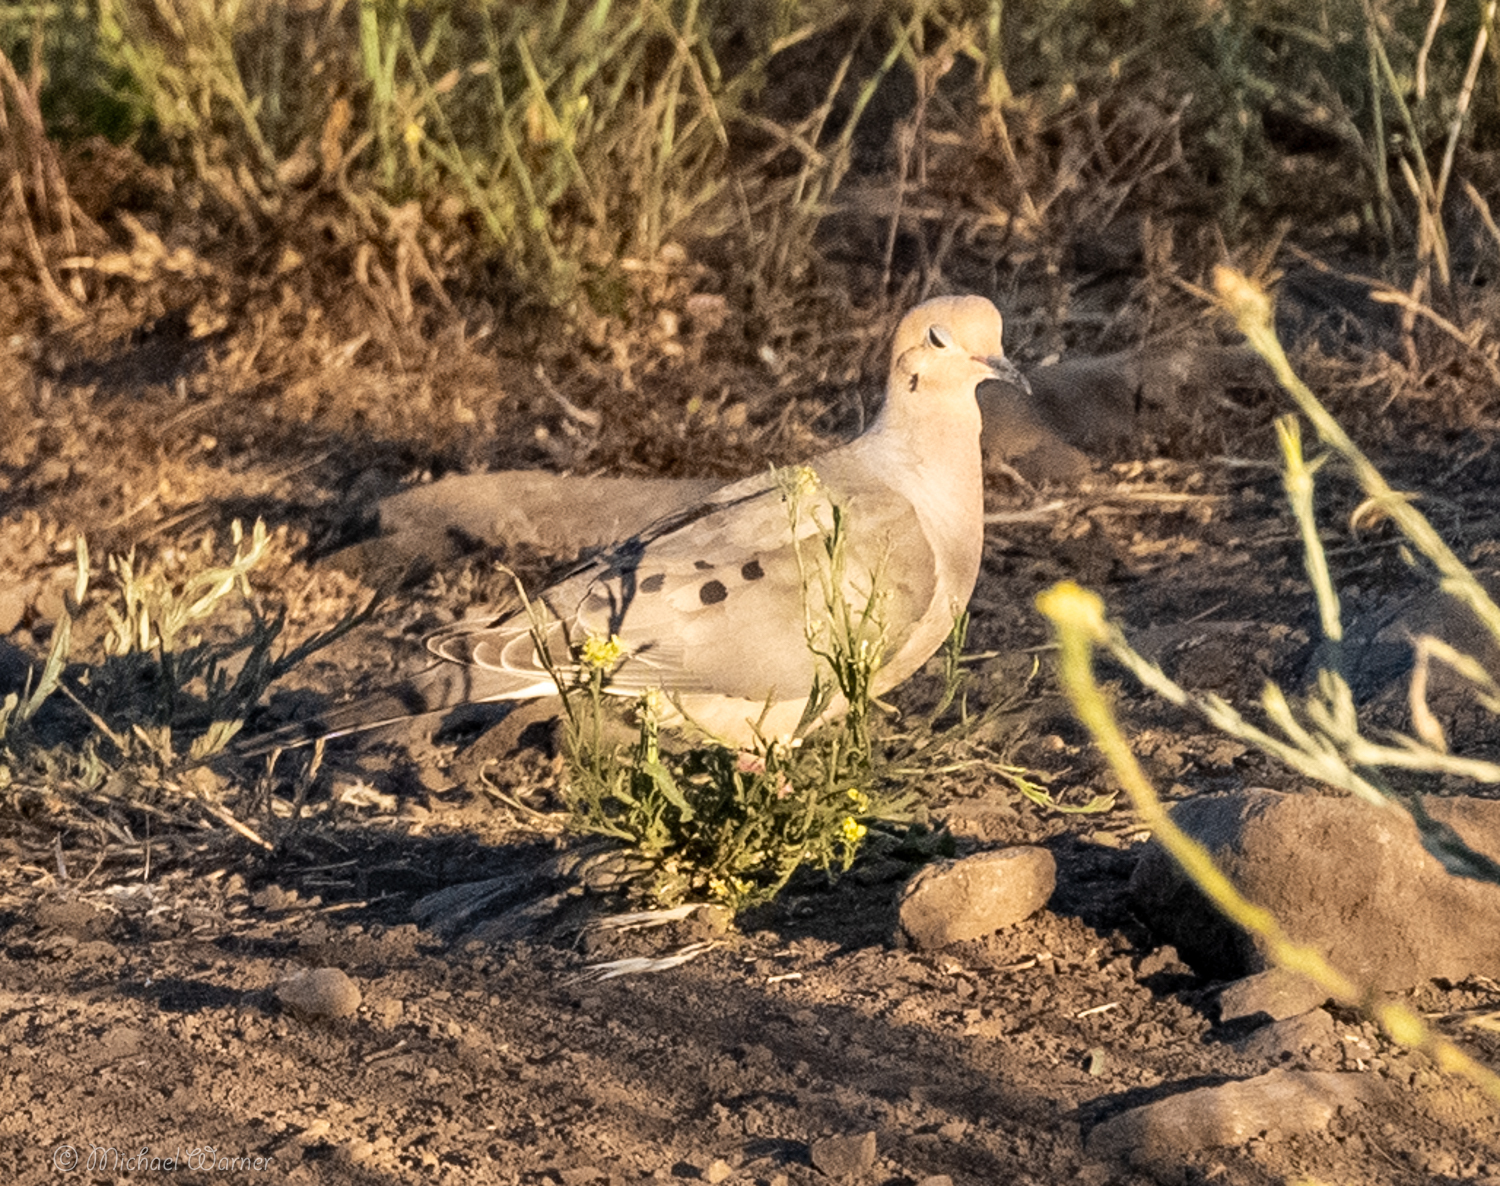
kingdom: Animalia
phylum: Chordata
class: Aves
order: Columbiformes
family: Columbidae
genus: Zenaida
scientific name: Zenaida macroura
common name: Mourning dove
